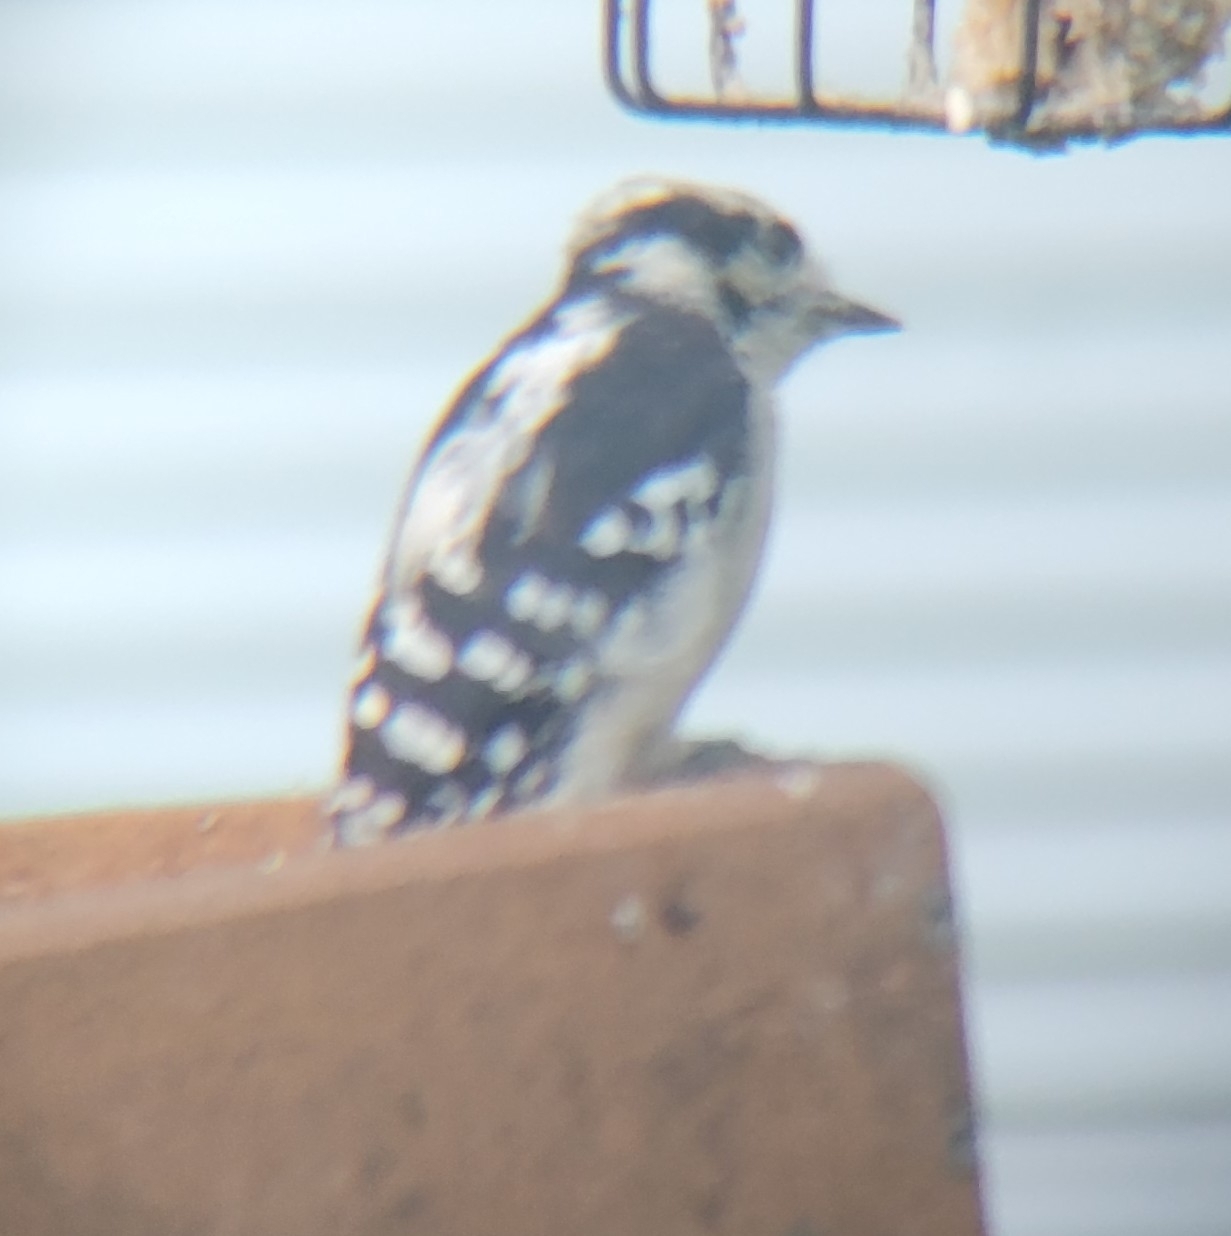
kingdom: Animalia
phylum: Chordata
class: Aves
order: Piciformes
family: Picidae
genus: Dryobates
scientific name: Dryobates pubescens
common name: Downy woodpecker
